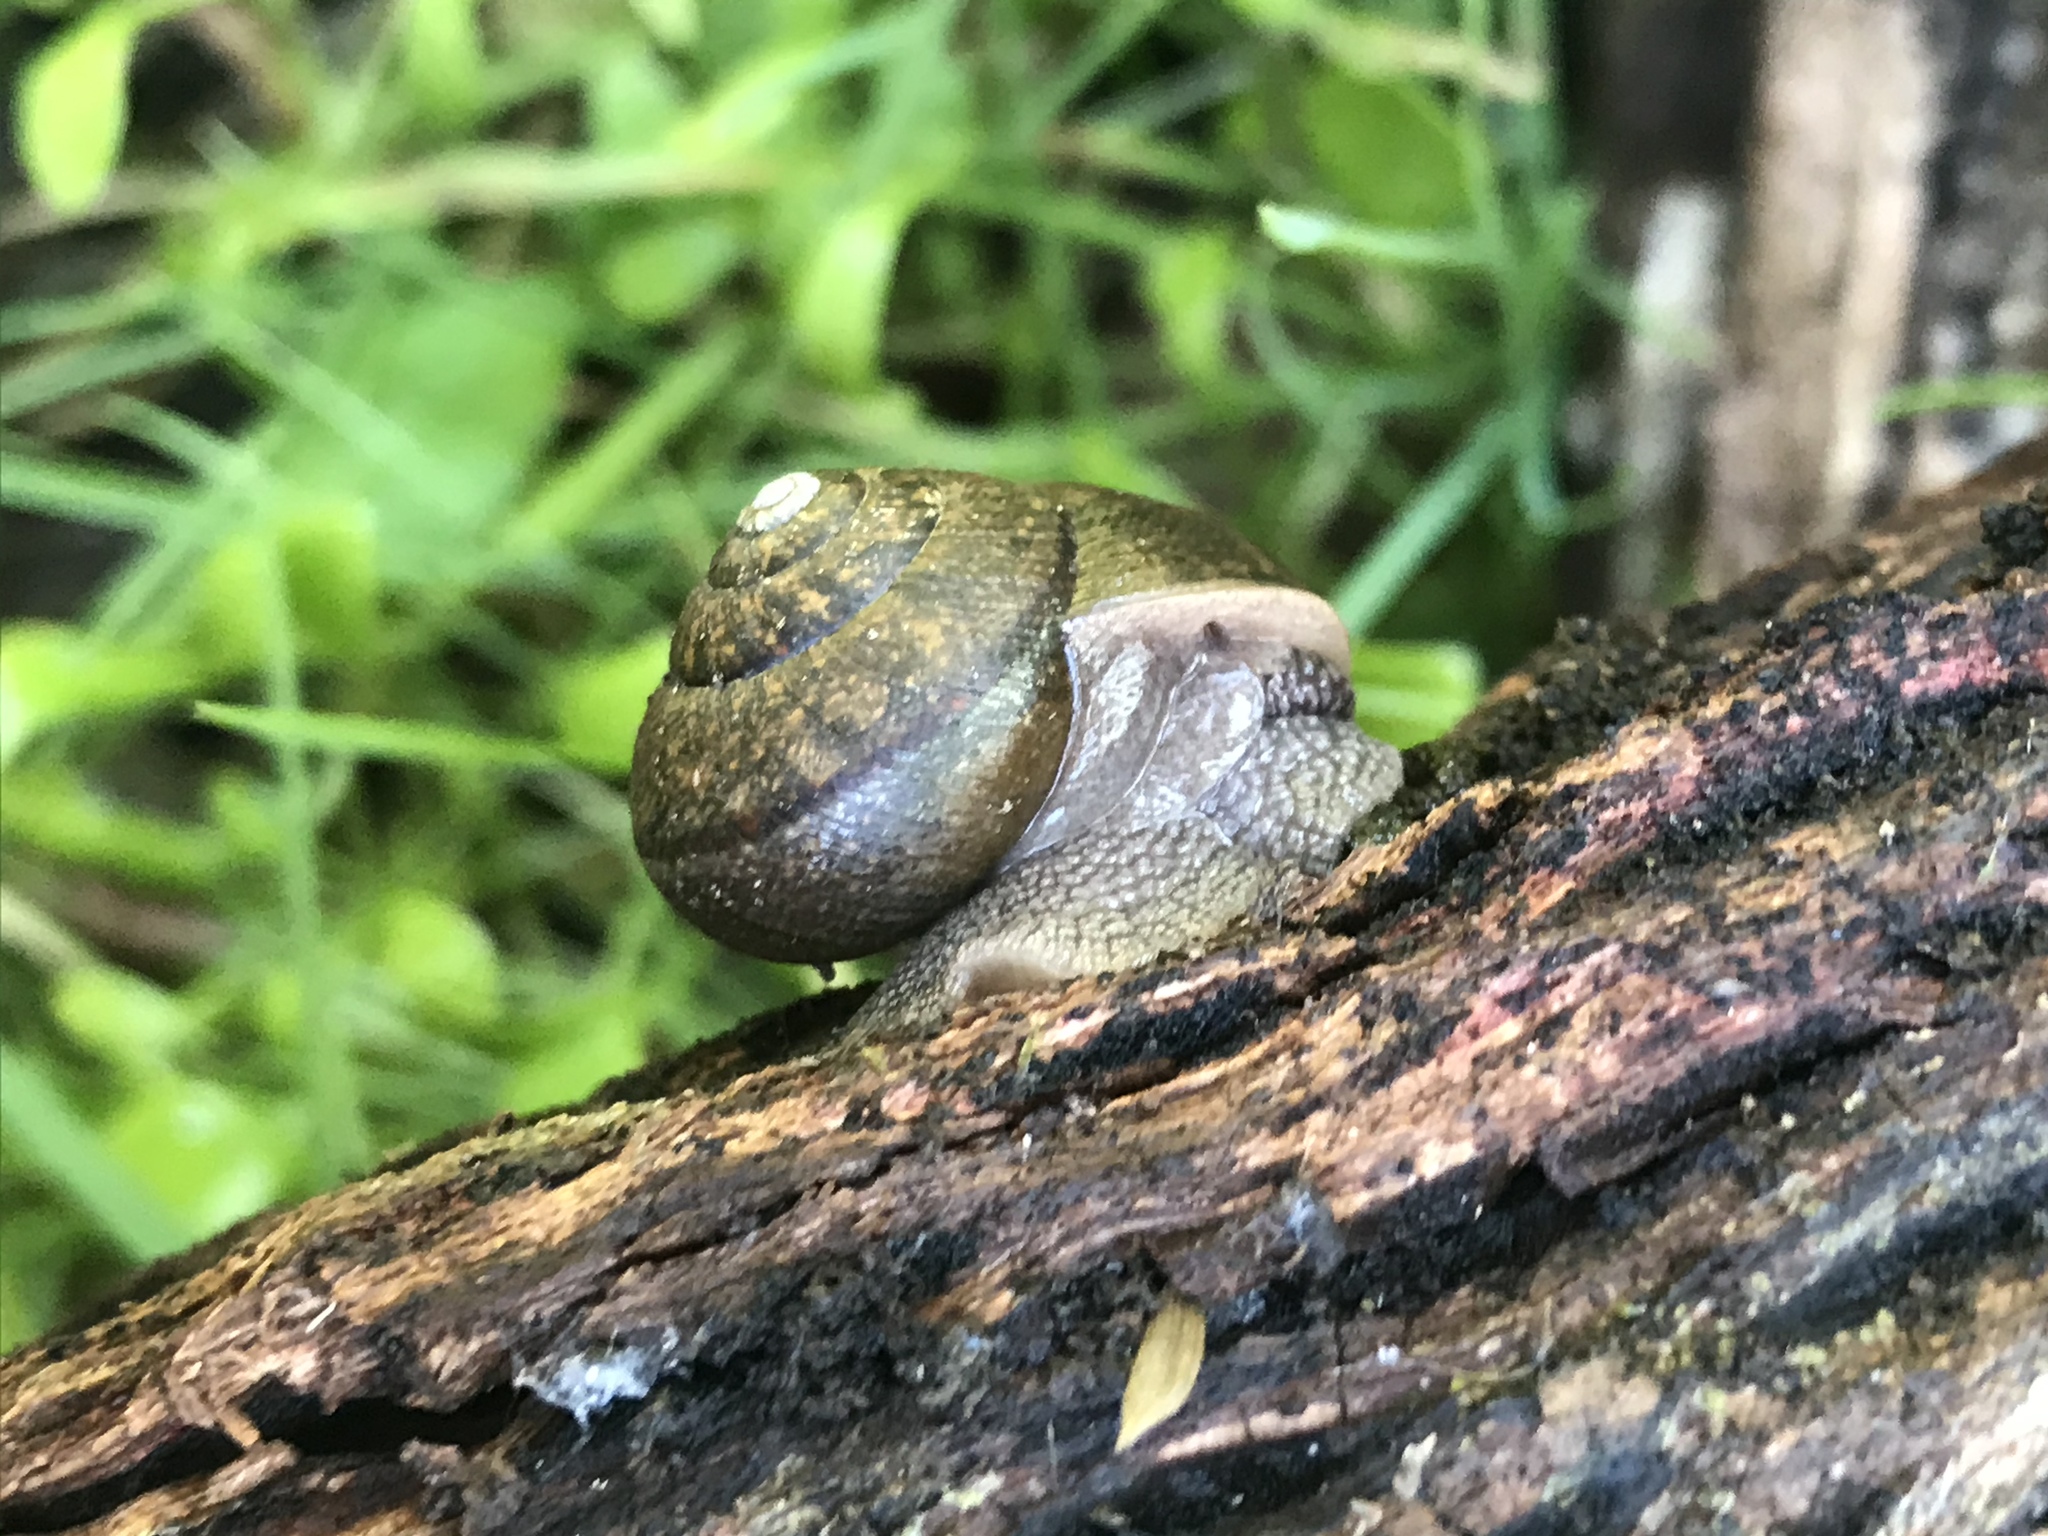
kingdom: Animalia
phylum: Mollusca
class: Gastropoda
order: Stylommatophora
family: Xanthonychidae
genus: Helminthoglypta
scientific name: Helminthoglypta nickliniana
